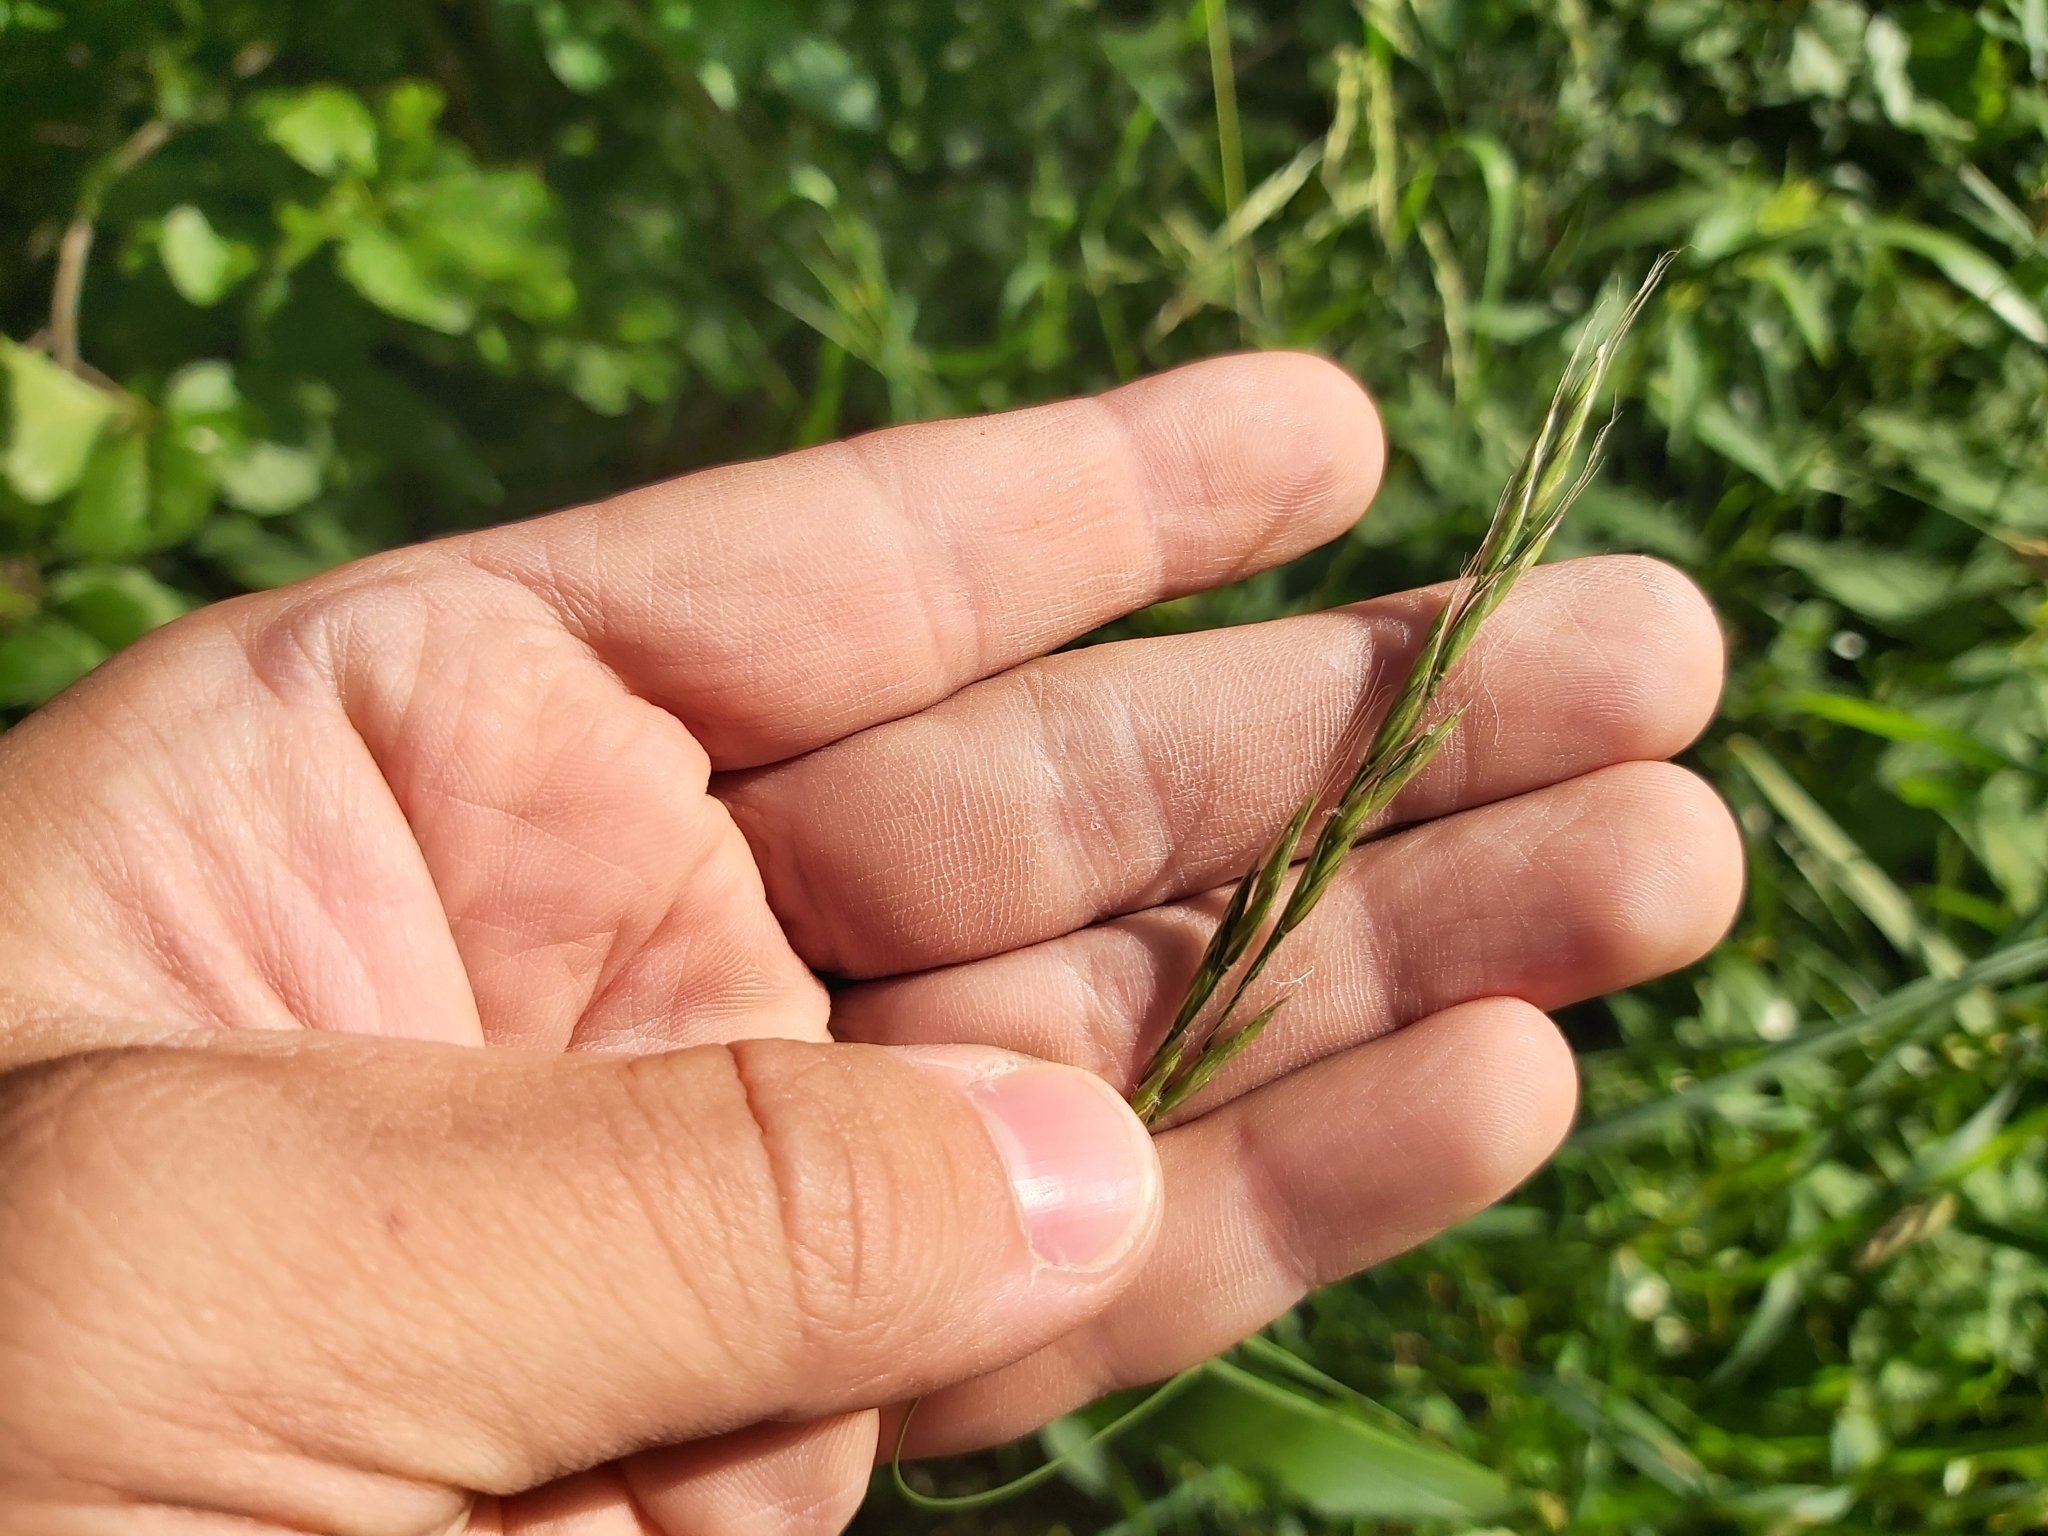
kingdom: Plantae
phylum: Tracheophyta
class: Liliopsida
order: Poales
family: Poaceae
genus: Brachypodium
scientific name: Brachypodium sylvaticum
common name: False-brome
